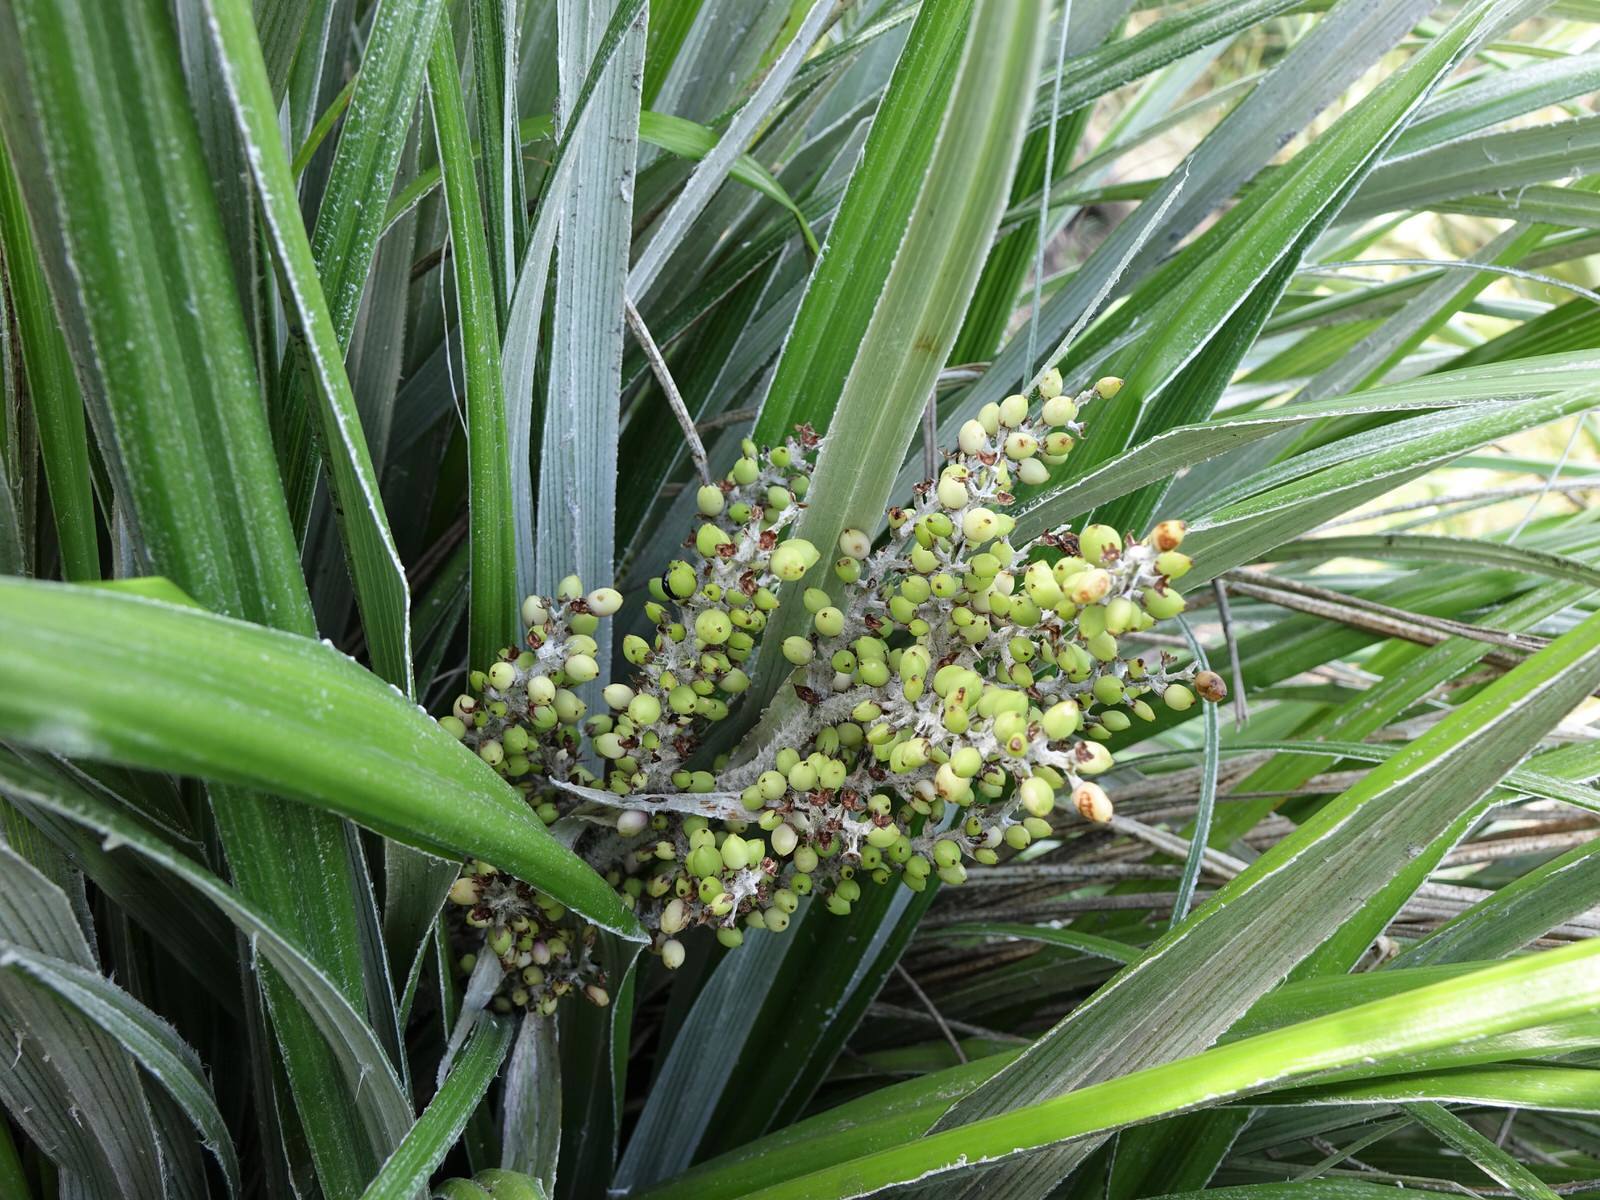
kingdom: Plantae
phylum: Tracheophyta
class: Liliopsida
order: Asparagales
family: Asteliaceae
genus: Astelia
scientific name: Astelia banksii
